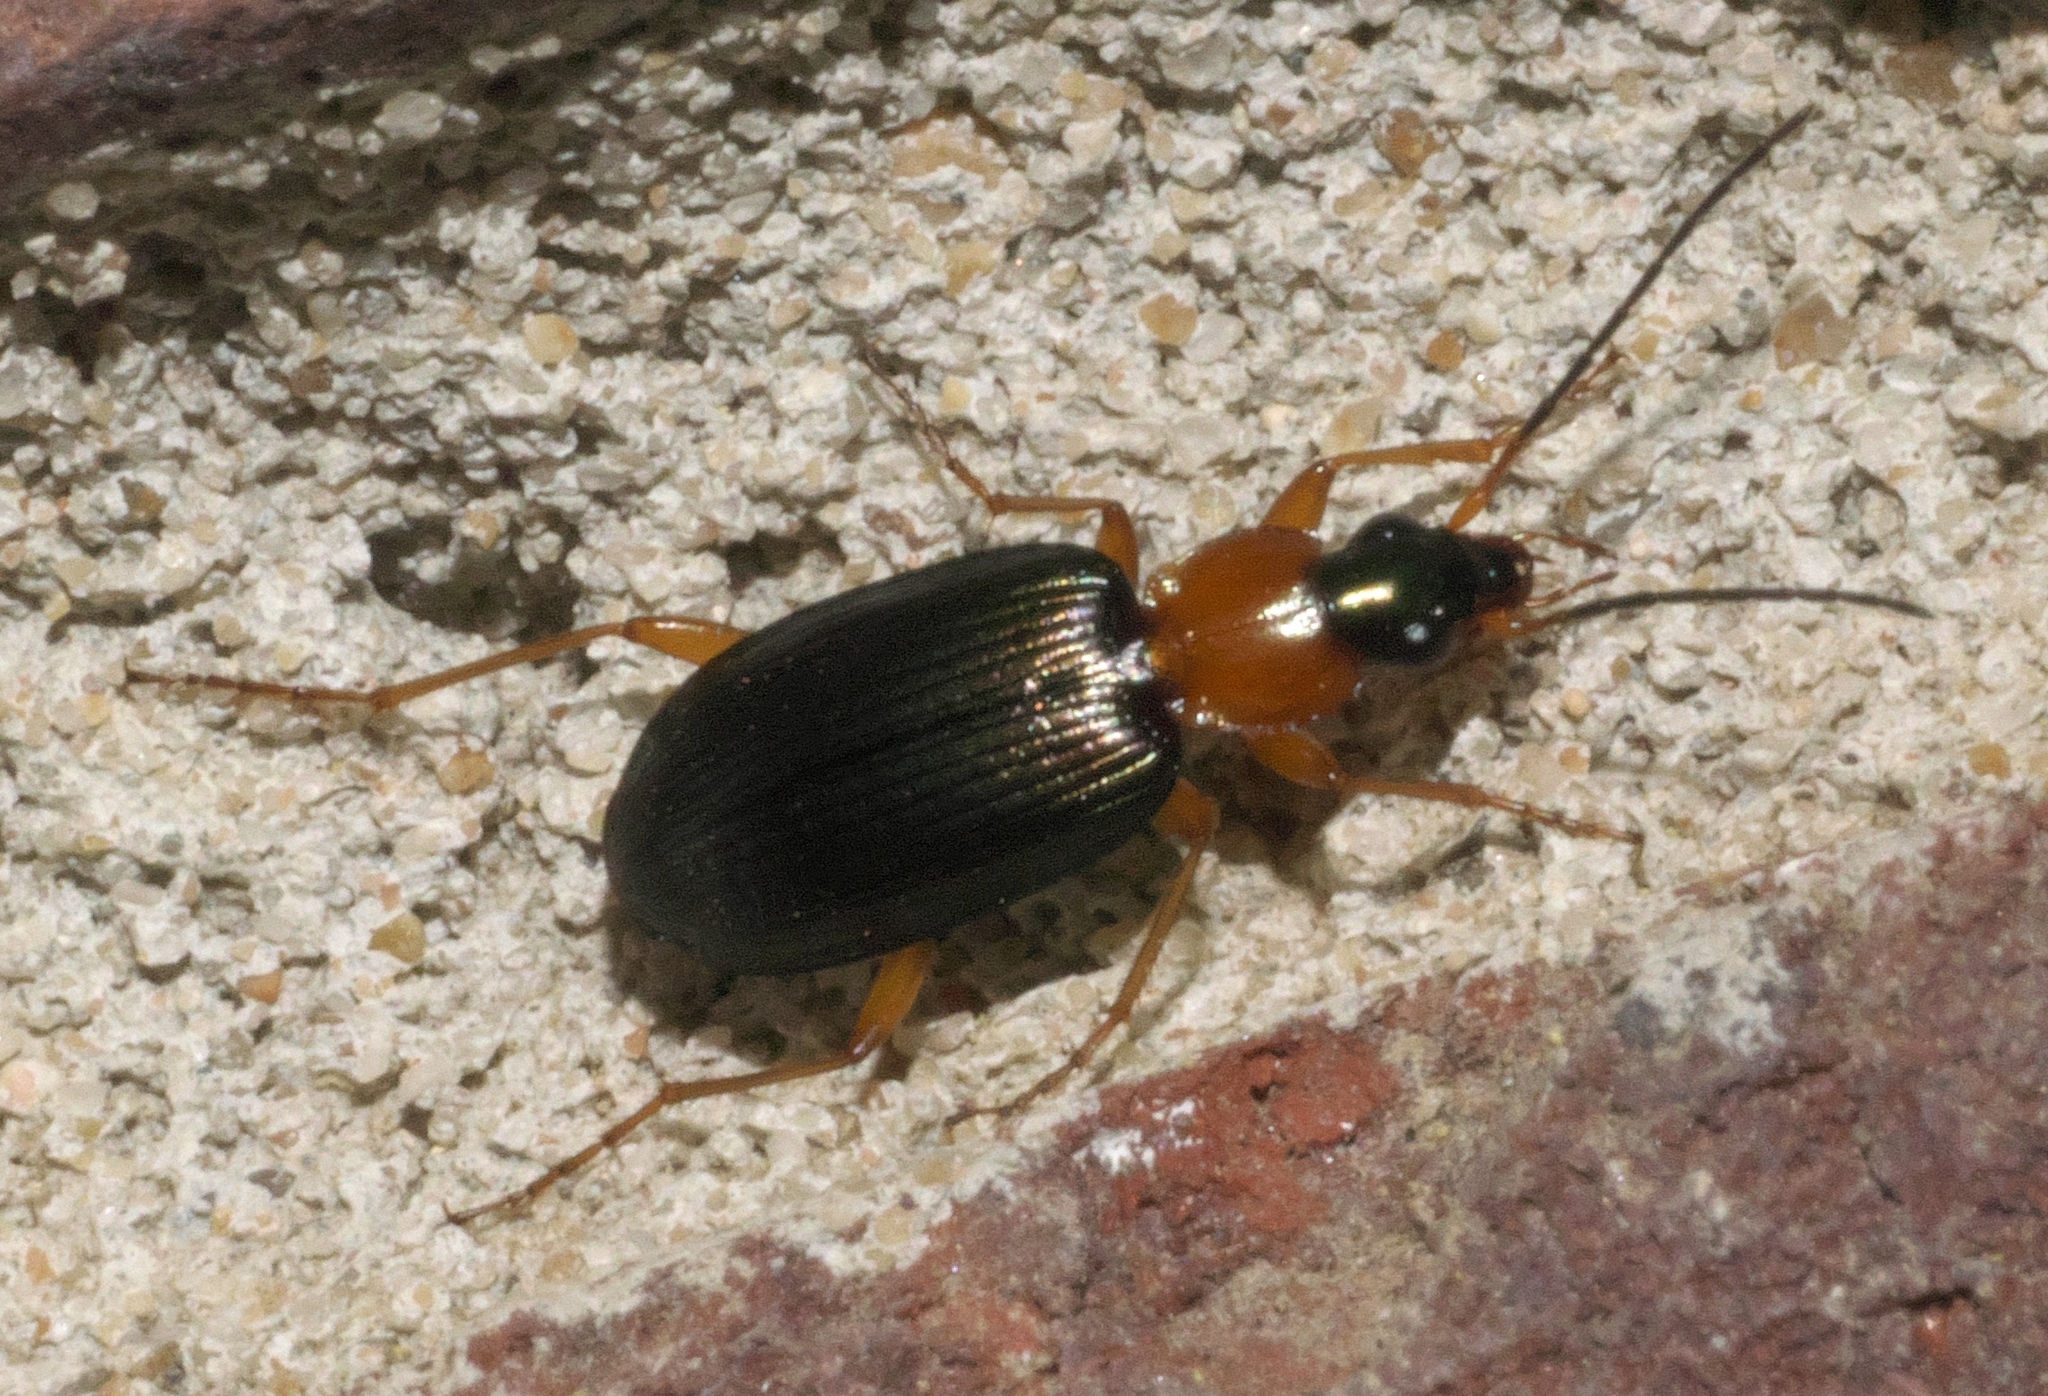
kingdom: Animalia
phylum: Arthropoda
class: Insecta
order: Coleoptera
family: Carabidae
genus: Agonum
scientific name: Agonum decorum
